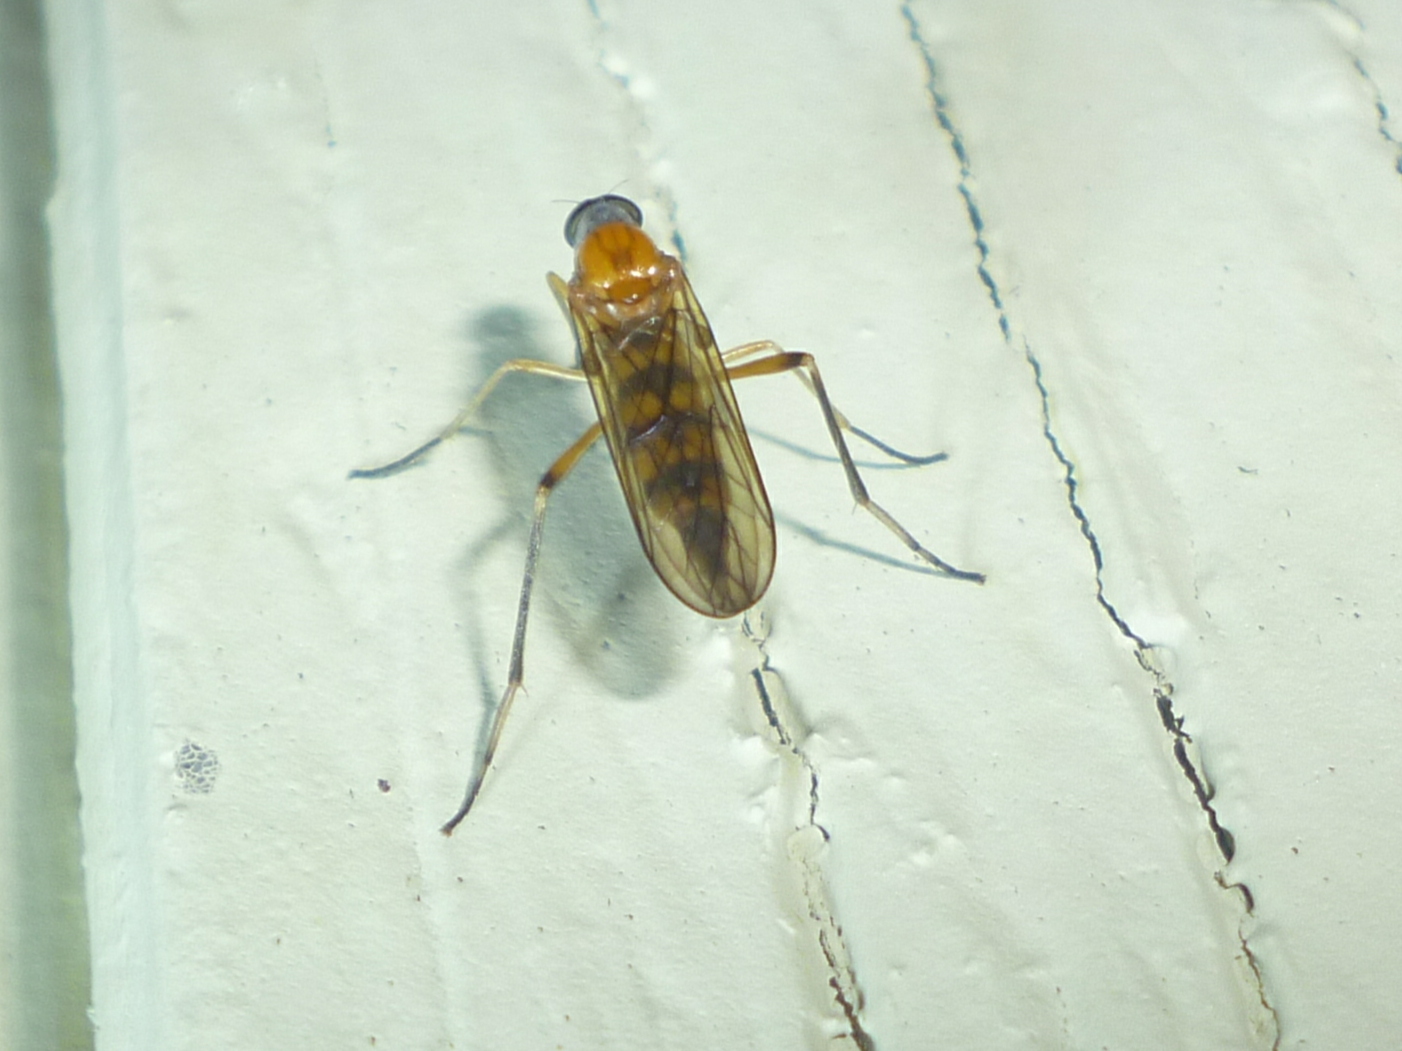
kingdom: Animalia
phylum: Arthropoda
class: Insecta
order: Diptera
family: Xylophagidae
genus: Dialysis
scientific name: Dialysis elongata
